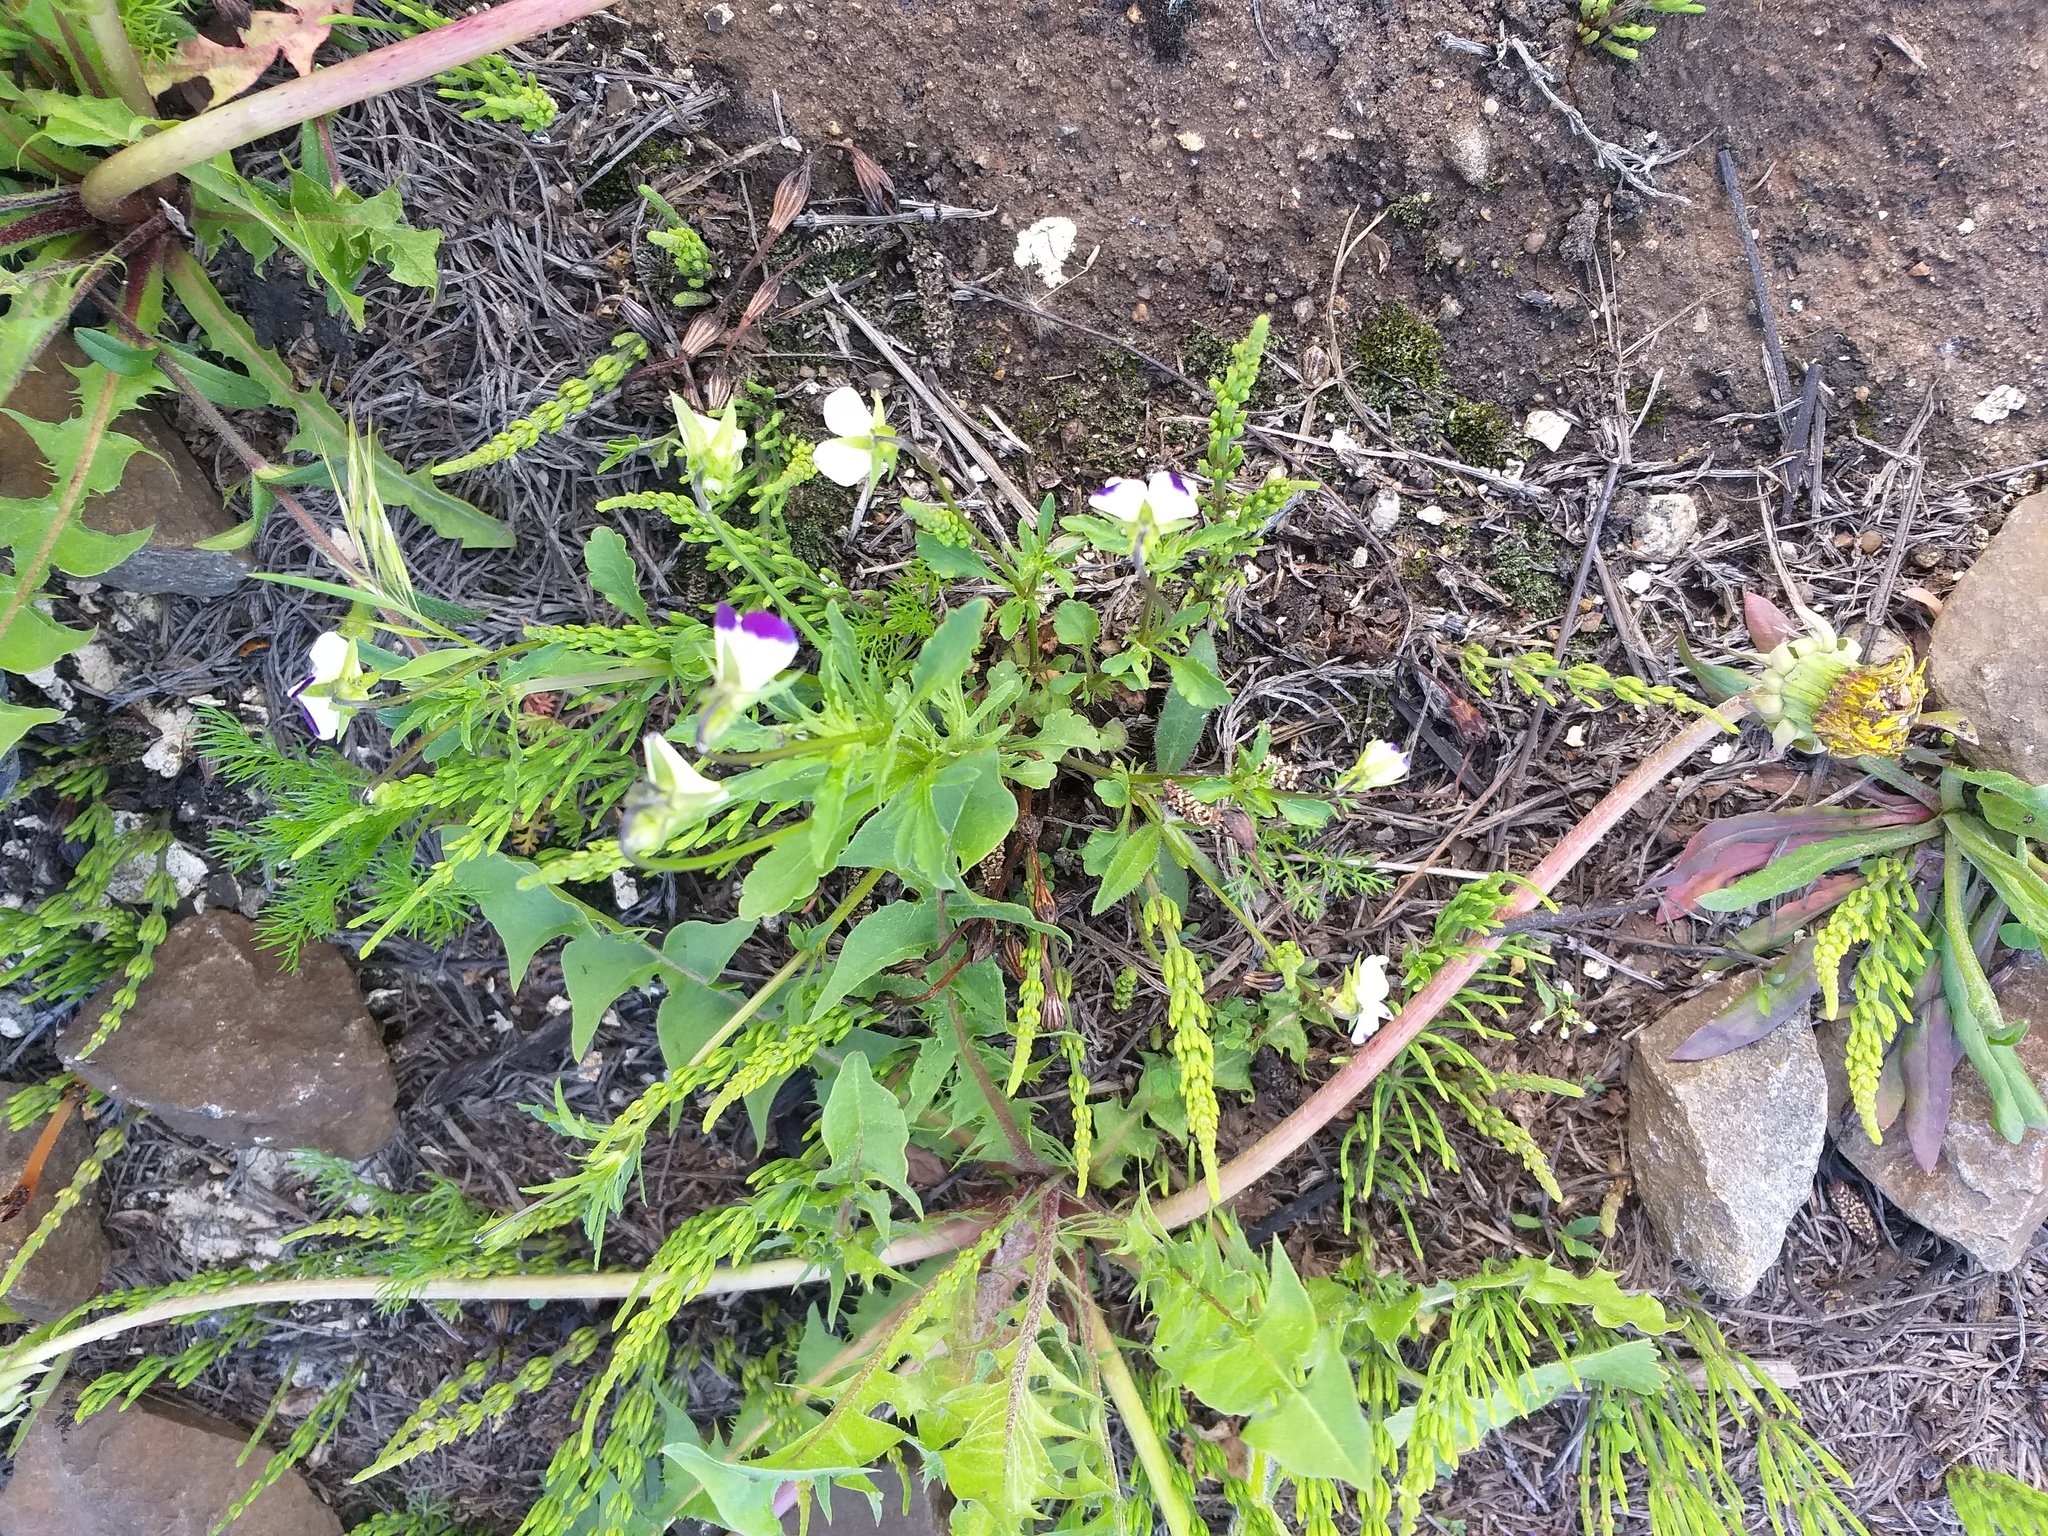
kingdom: Plantae
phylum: Tracheophyta
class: Magnoliopsida
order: Malpighiales
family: Violaceae
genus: Viola
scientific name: Viola contempta
